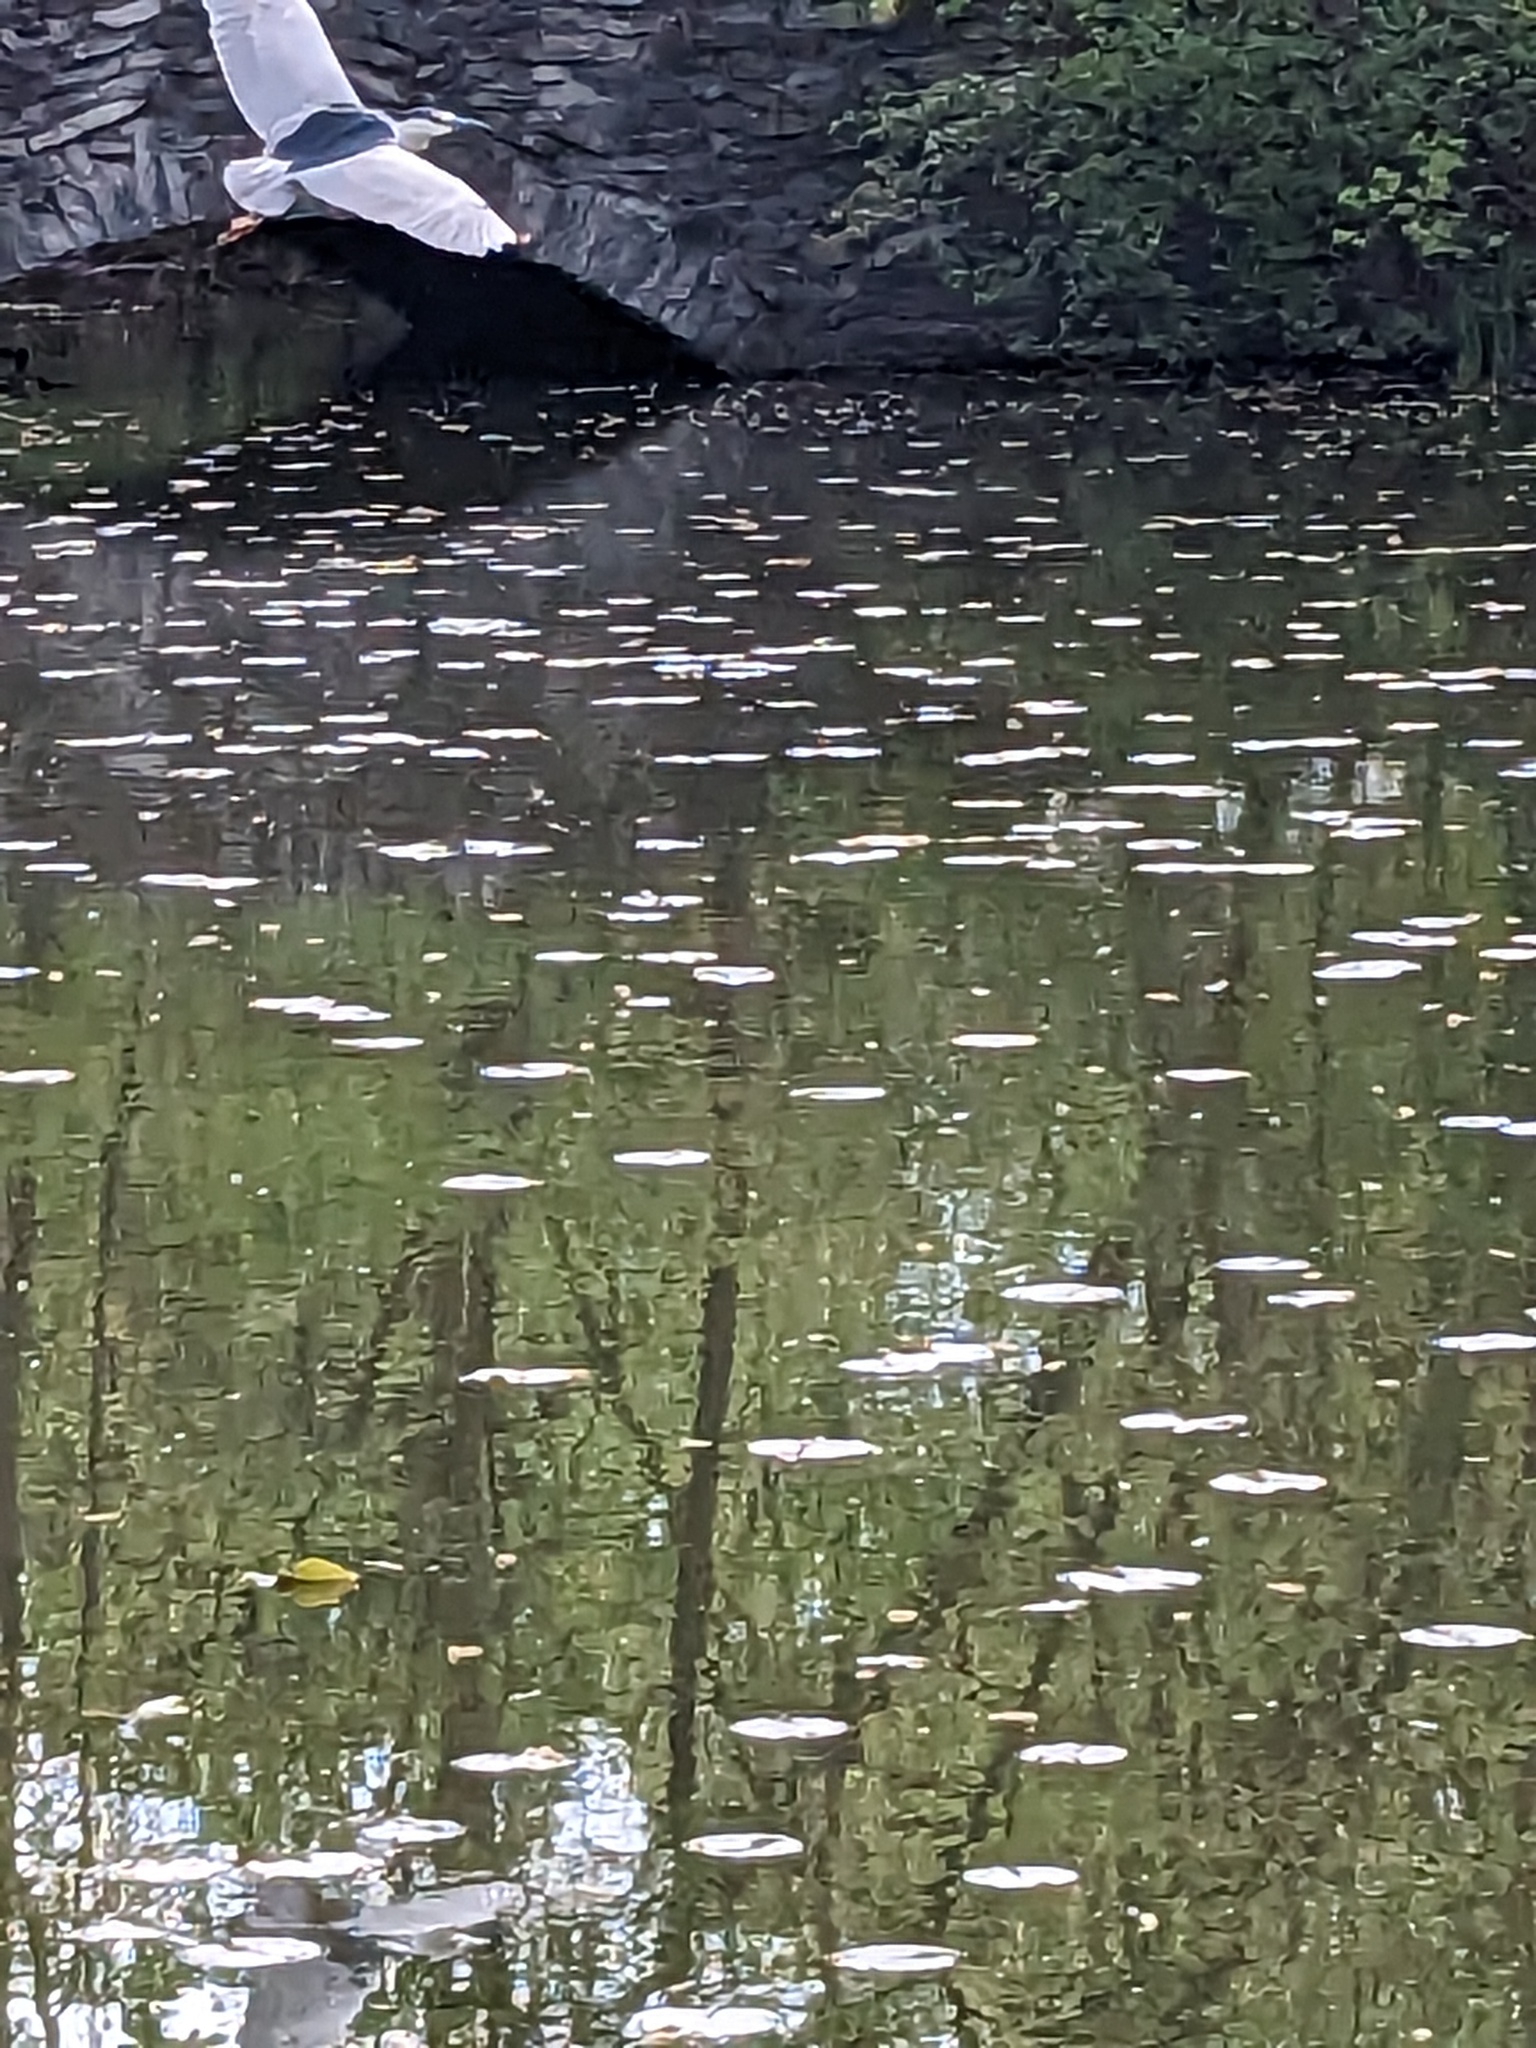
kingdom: Animalia
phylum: Chordata
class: Aves
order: Pelecaniformes
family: Ardeidae
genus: Nycticorax
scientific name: Nycticorax nycticorax
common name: Black-crowned night heron
